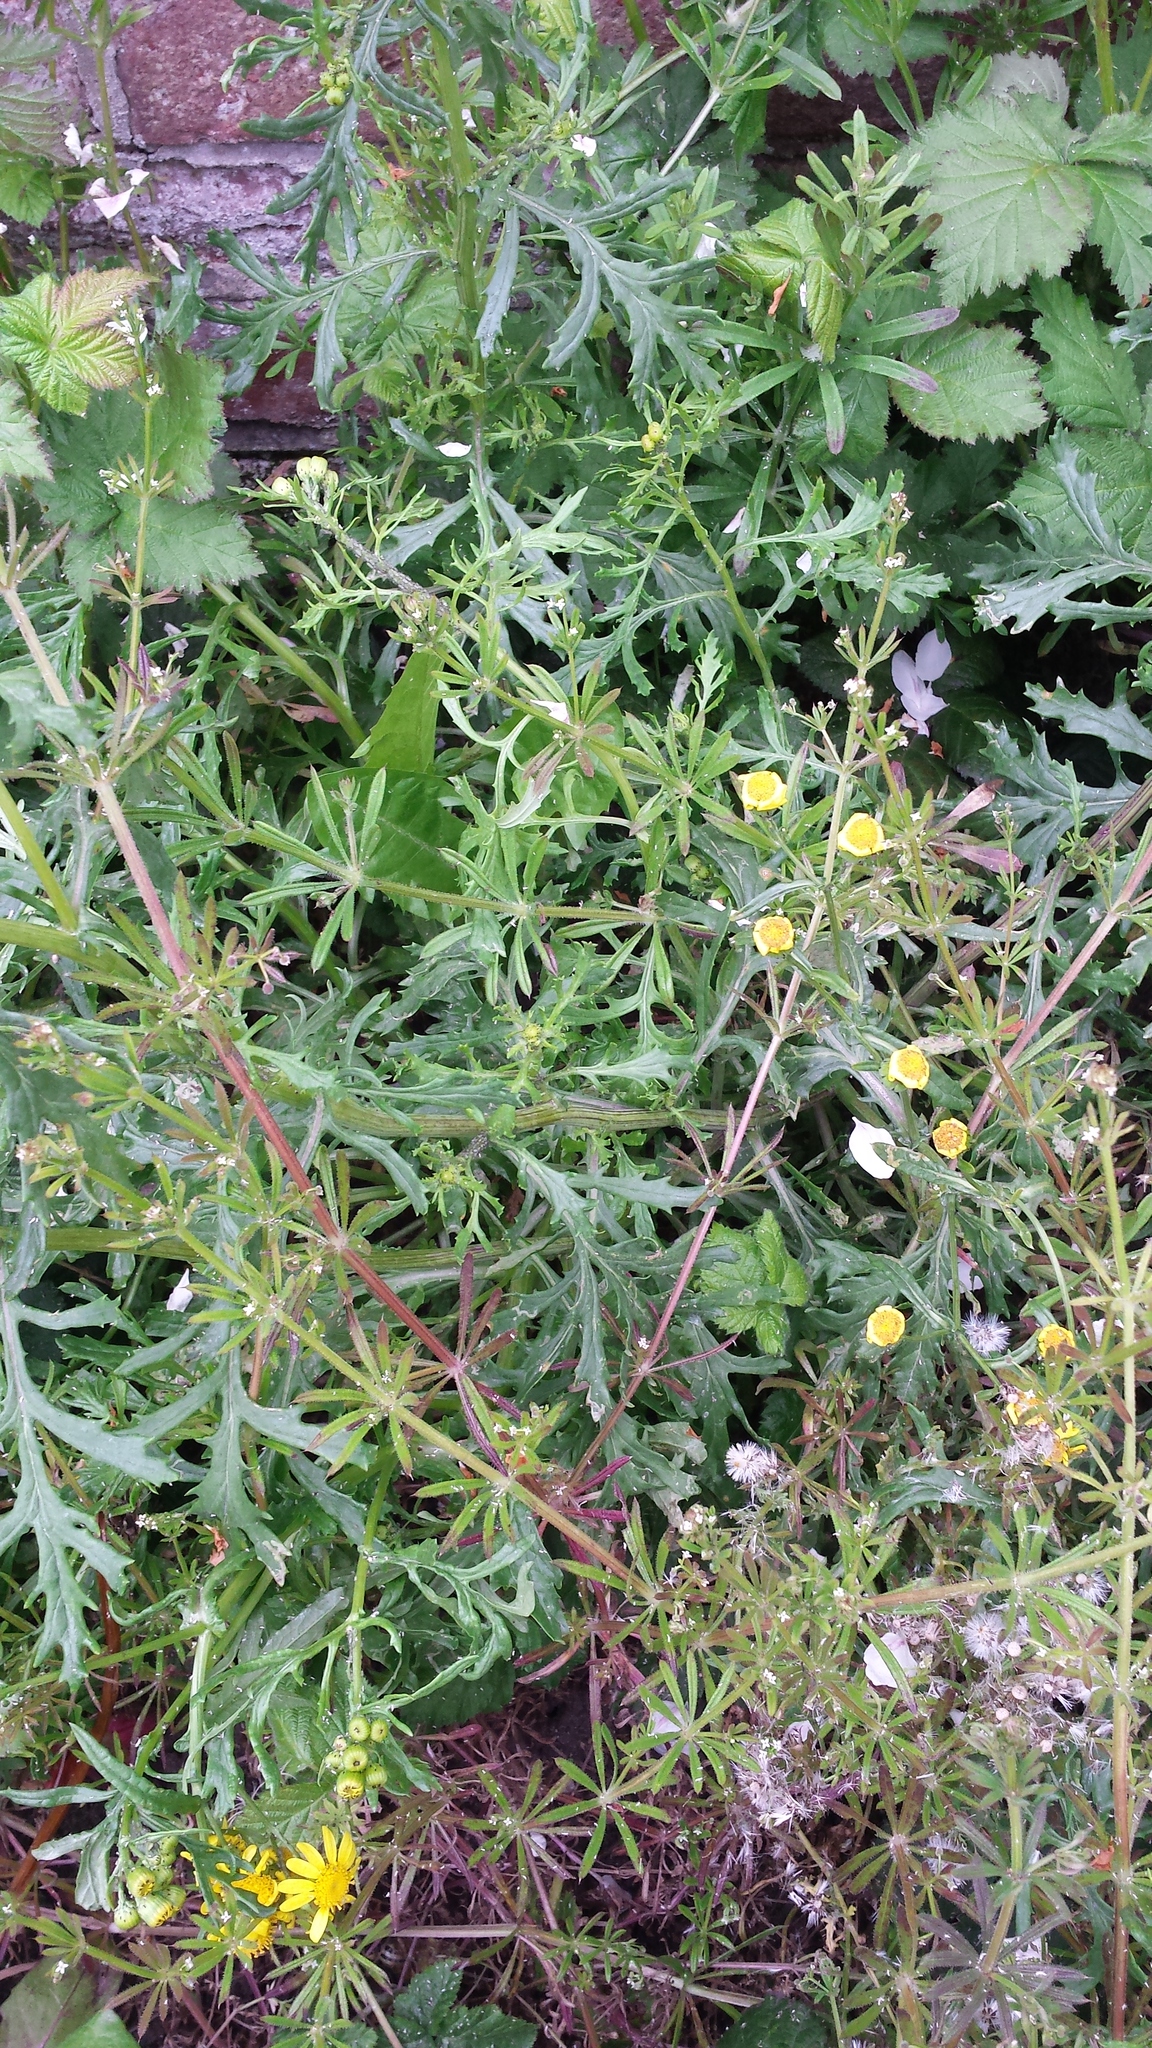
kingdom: Plantae
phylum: Tracheophyta
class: Magnoliopsida
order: Gentianales
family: Rubiaceae
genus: Galium
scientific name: Galium aparine
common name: Cleavers
